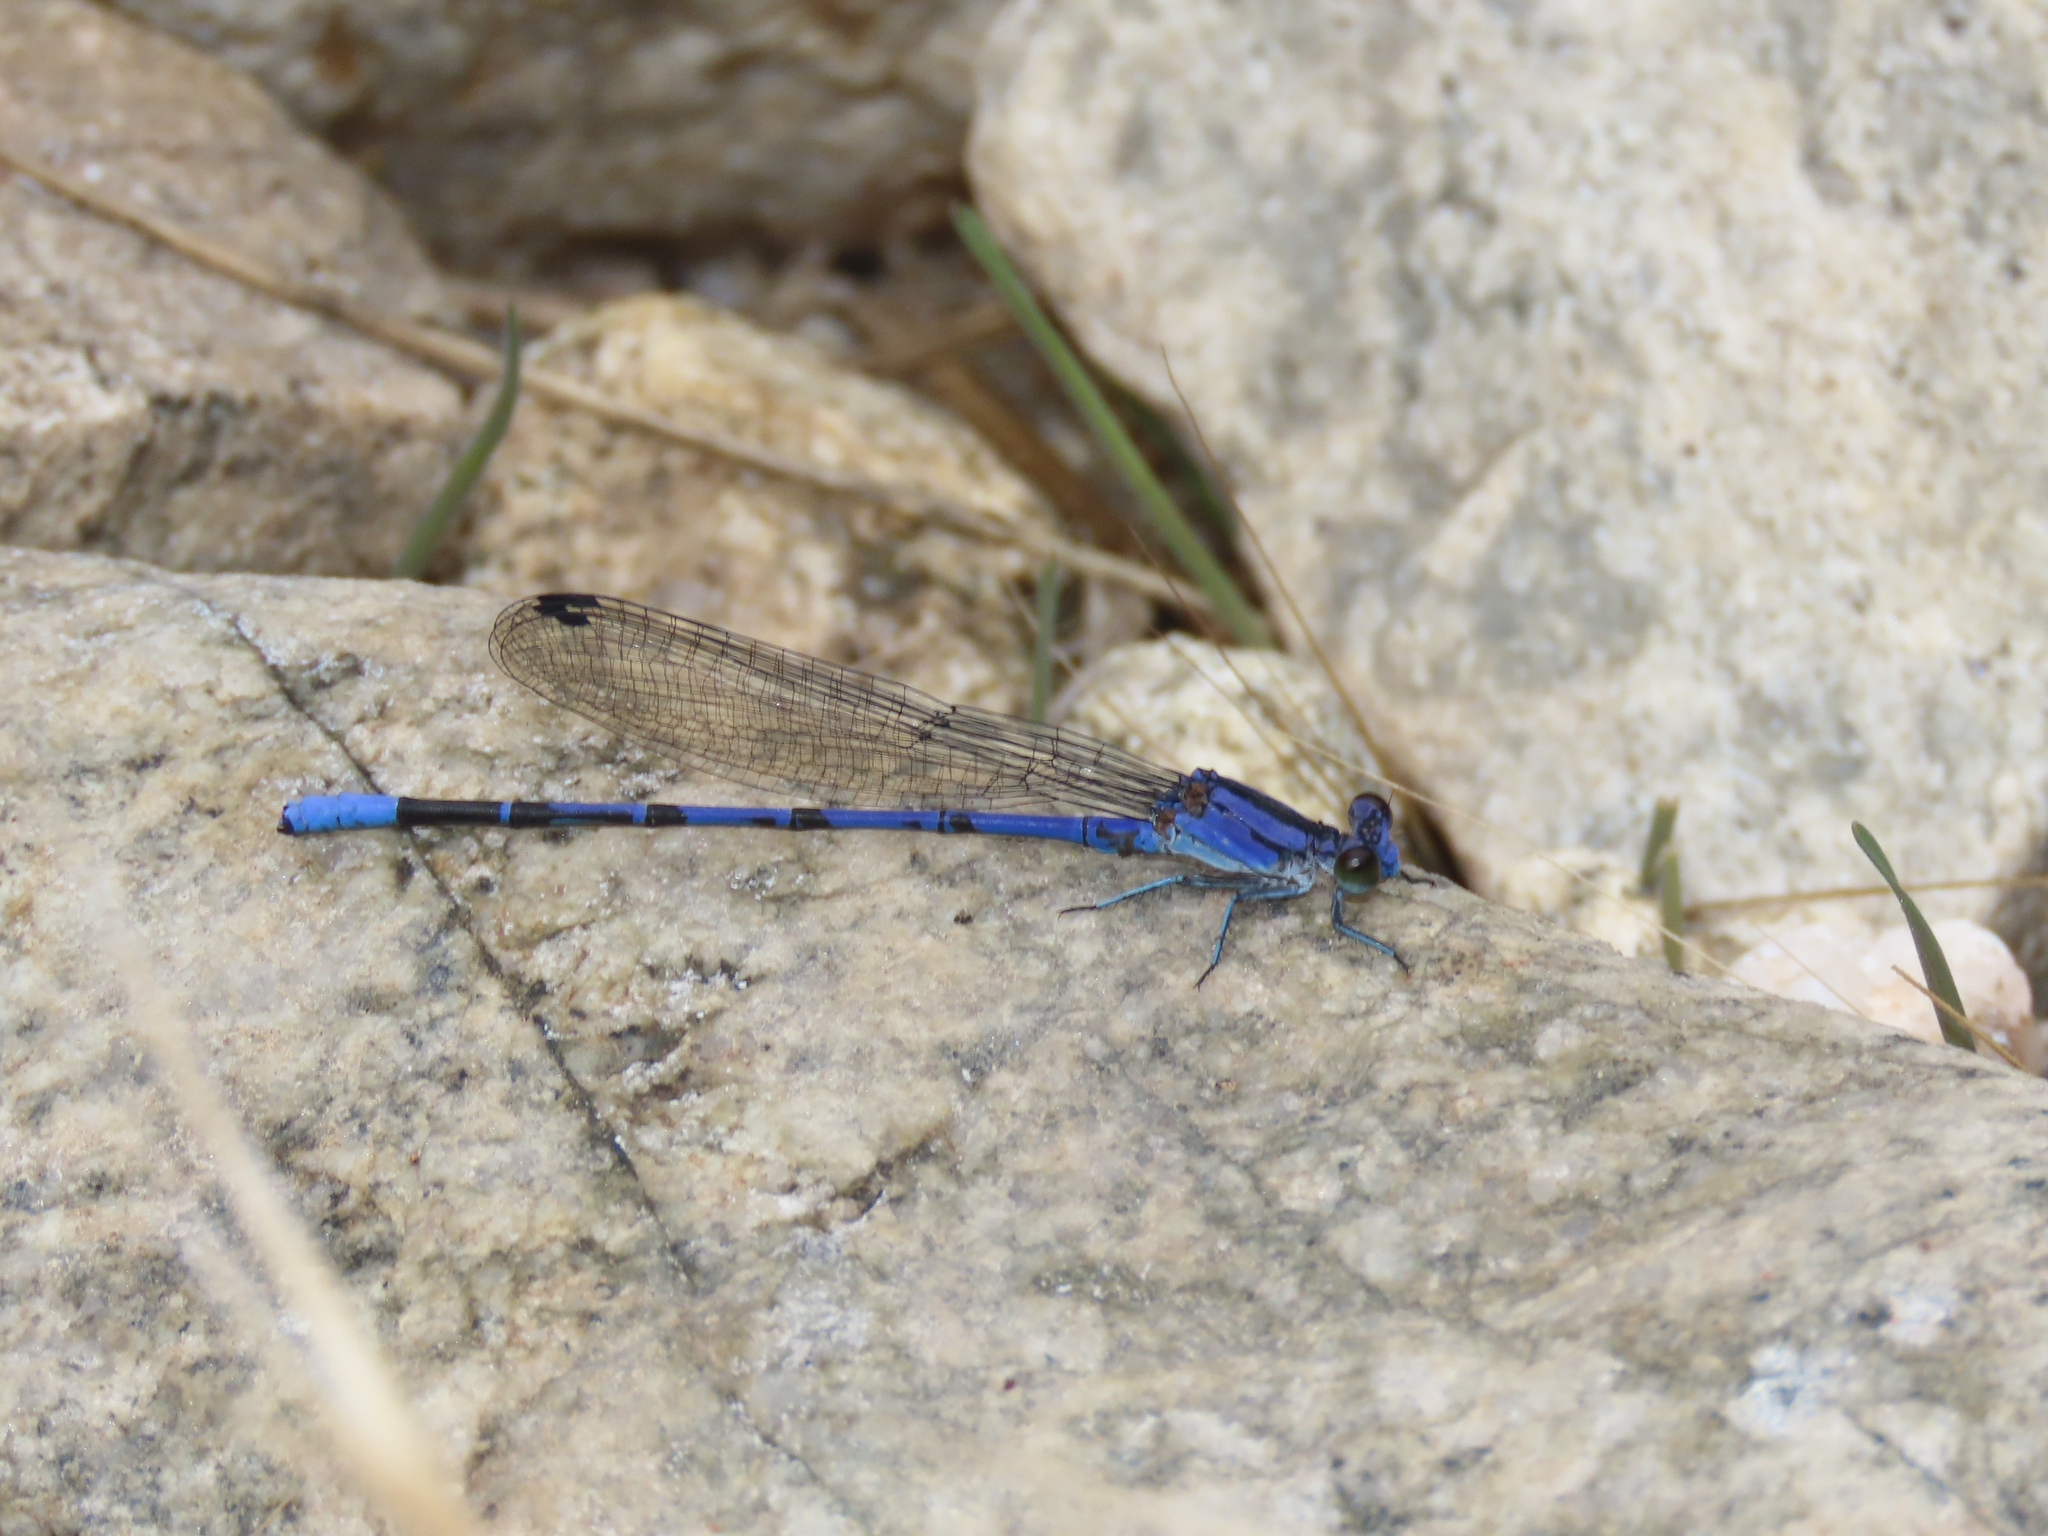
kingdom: Animalia
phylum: Arthropoda
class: Insecta
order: Odonata
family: Coenagrionidae
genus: Argia
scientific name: Argia funebris
